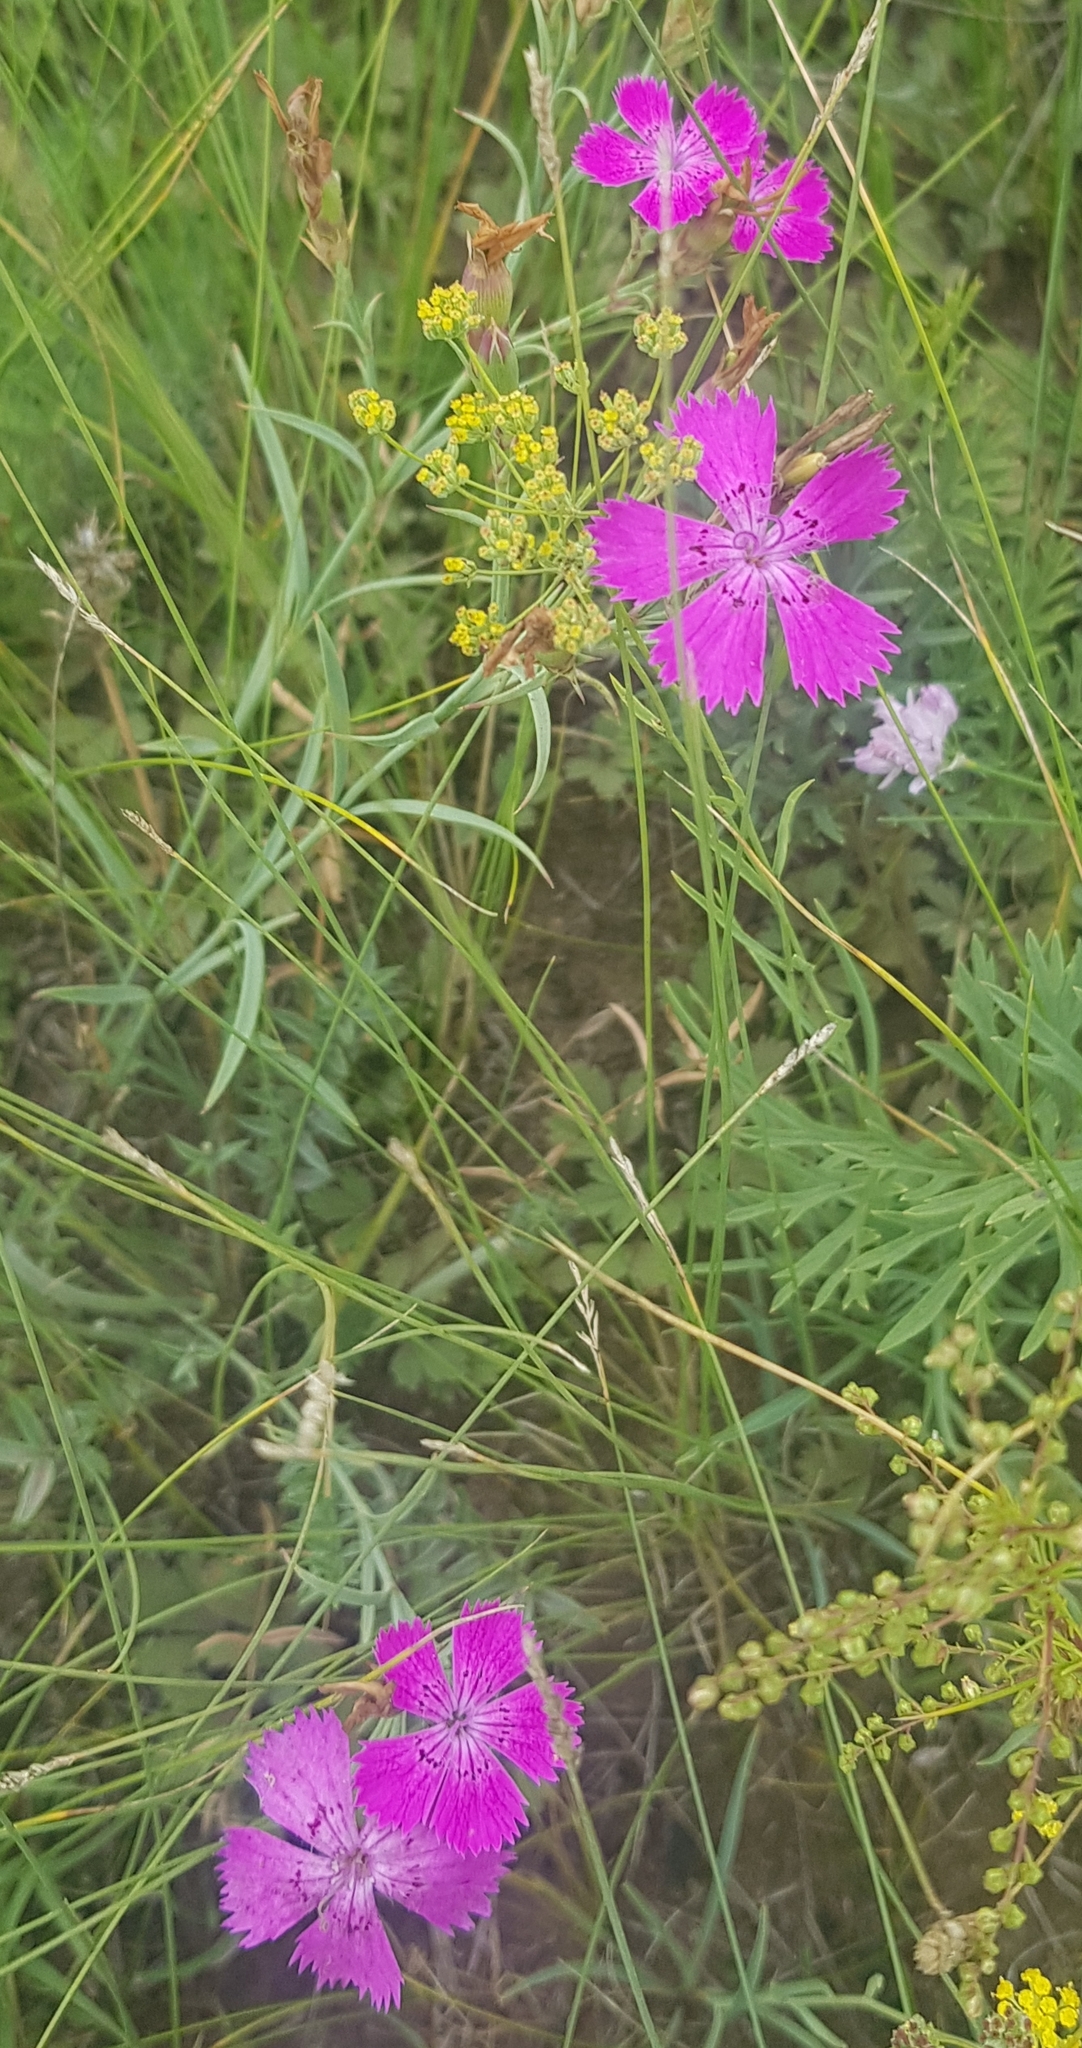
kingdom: Plantae
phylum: Tracheophyta
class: Magnoliopsida
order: Caryophyllales
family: Caryophyllaceae
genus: Dianthus
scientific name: Dianthus chinensis
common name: Rainbow pink
